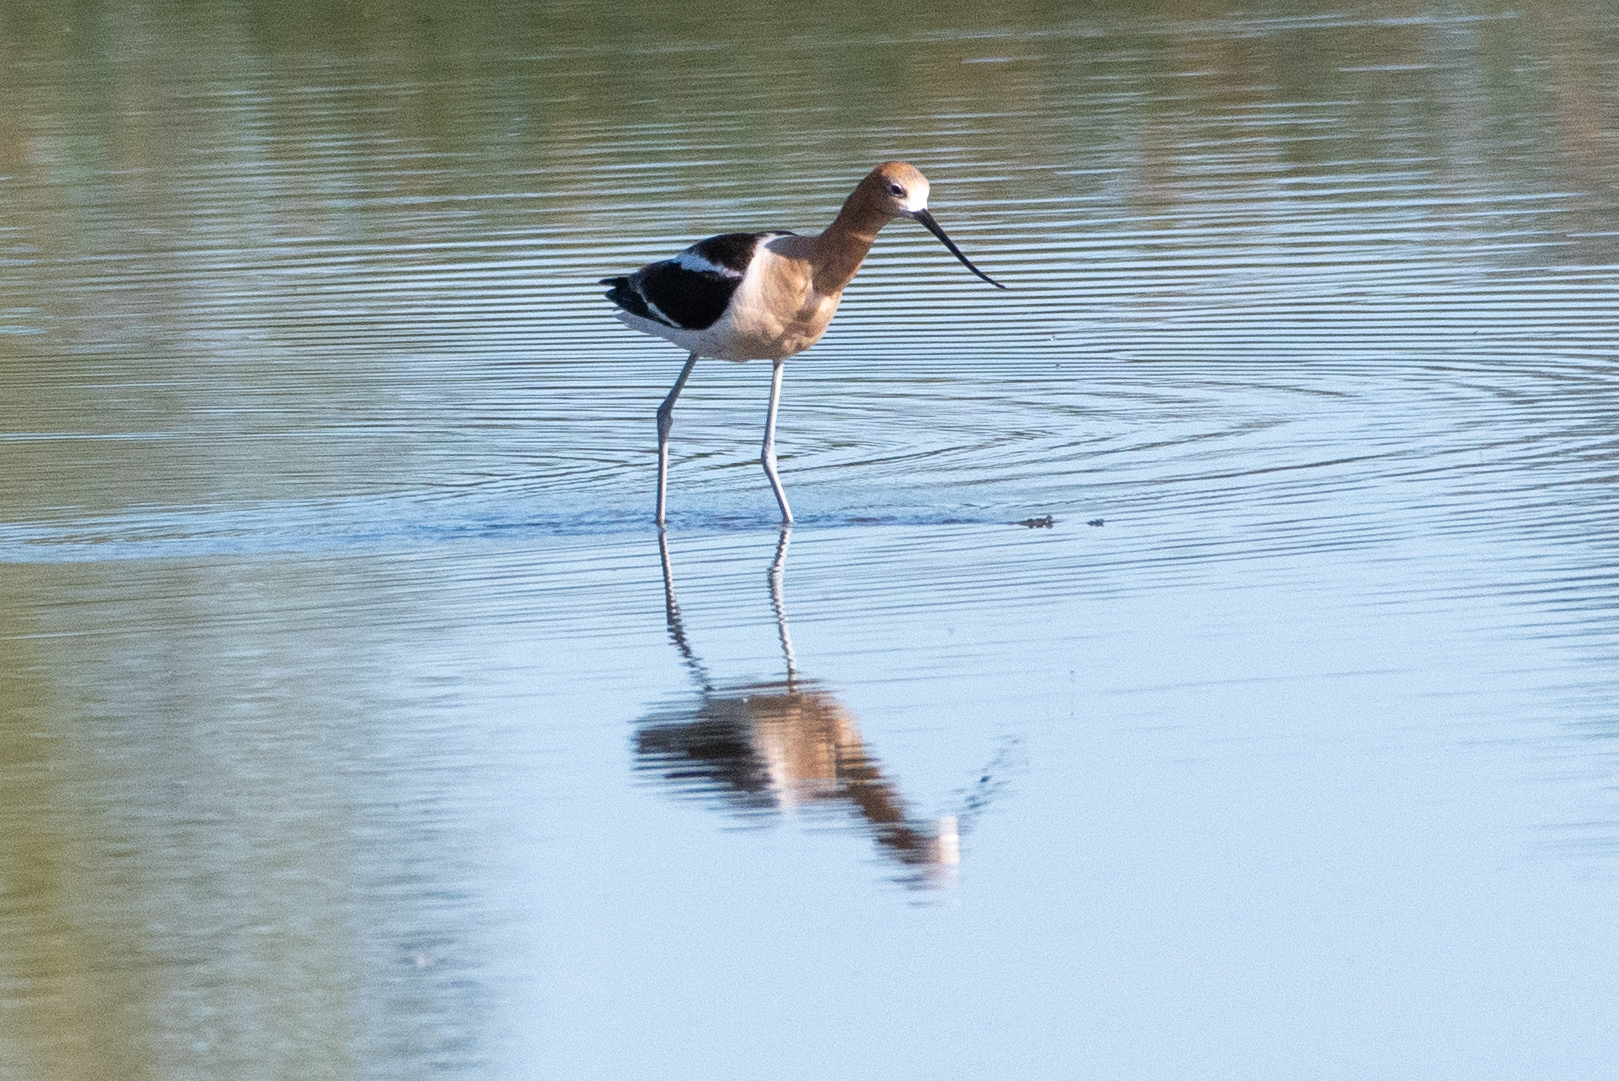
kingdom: Animalia
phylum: Chordata
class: Aves
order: Charadriiformes
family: Recurvirostridae
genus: Recurvirostra
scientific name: Recurvirostra americana
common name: American avocet
